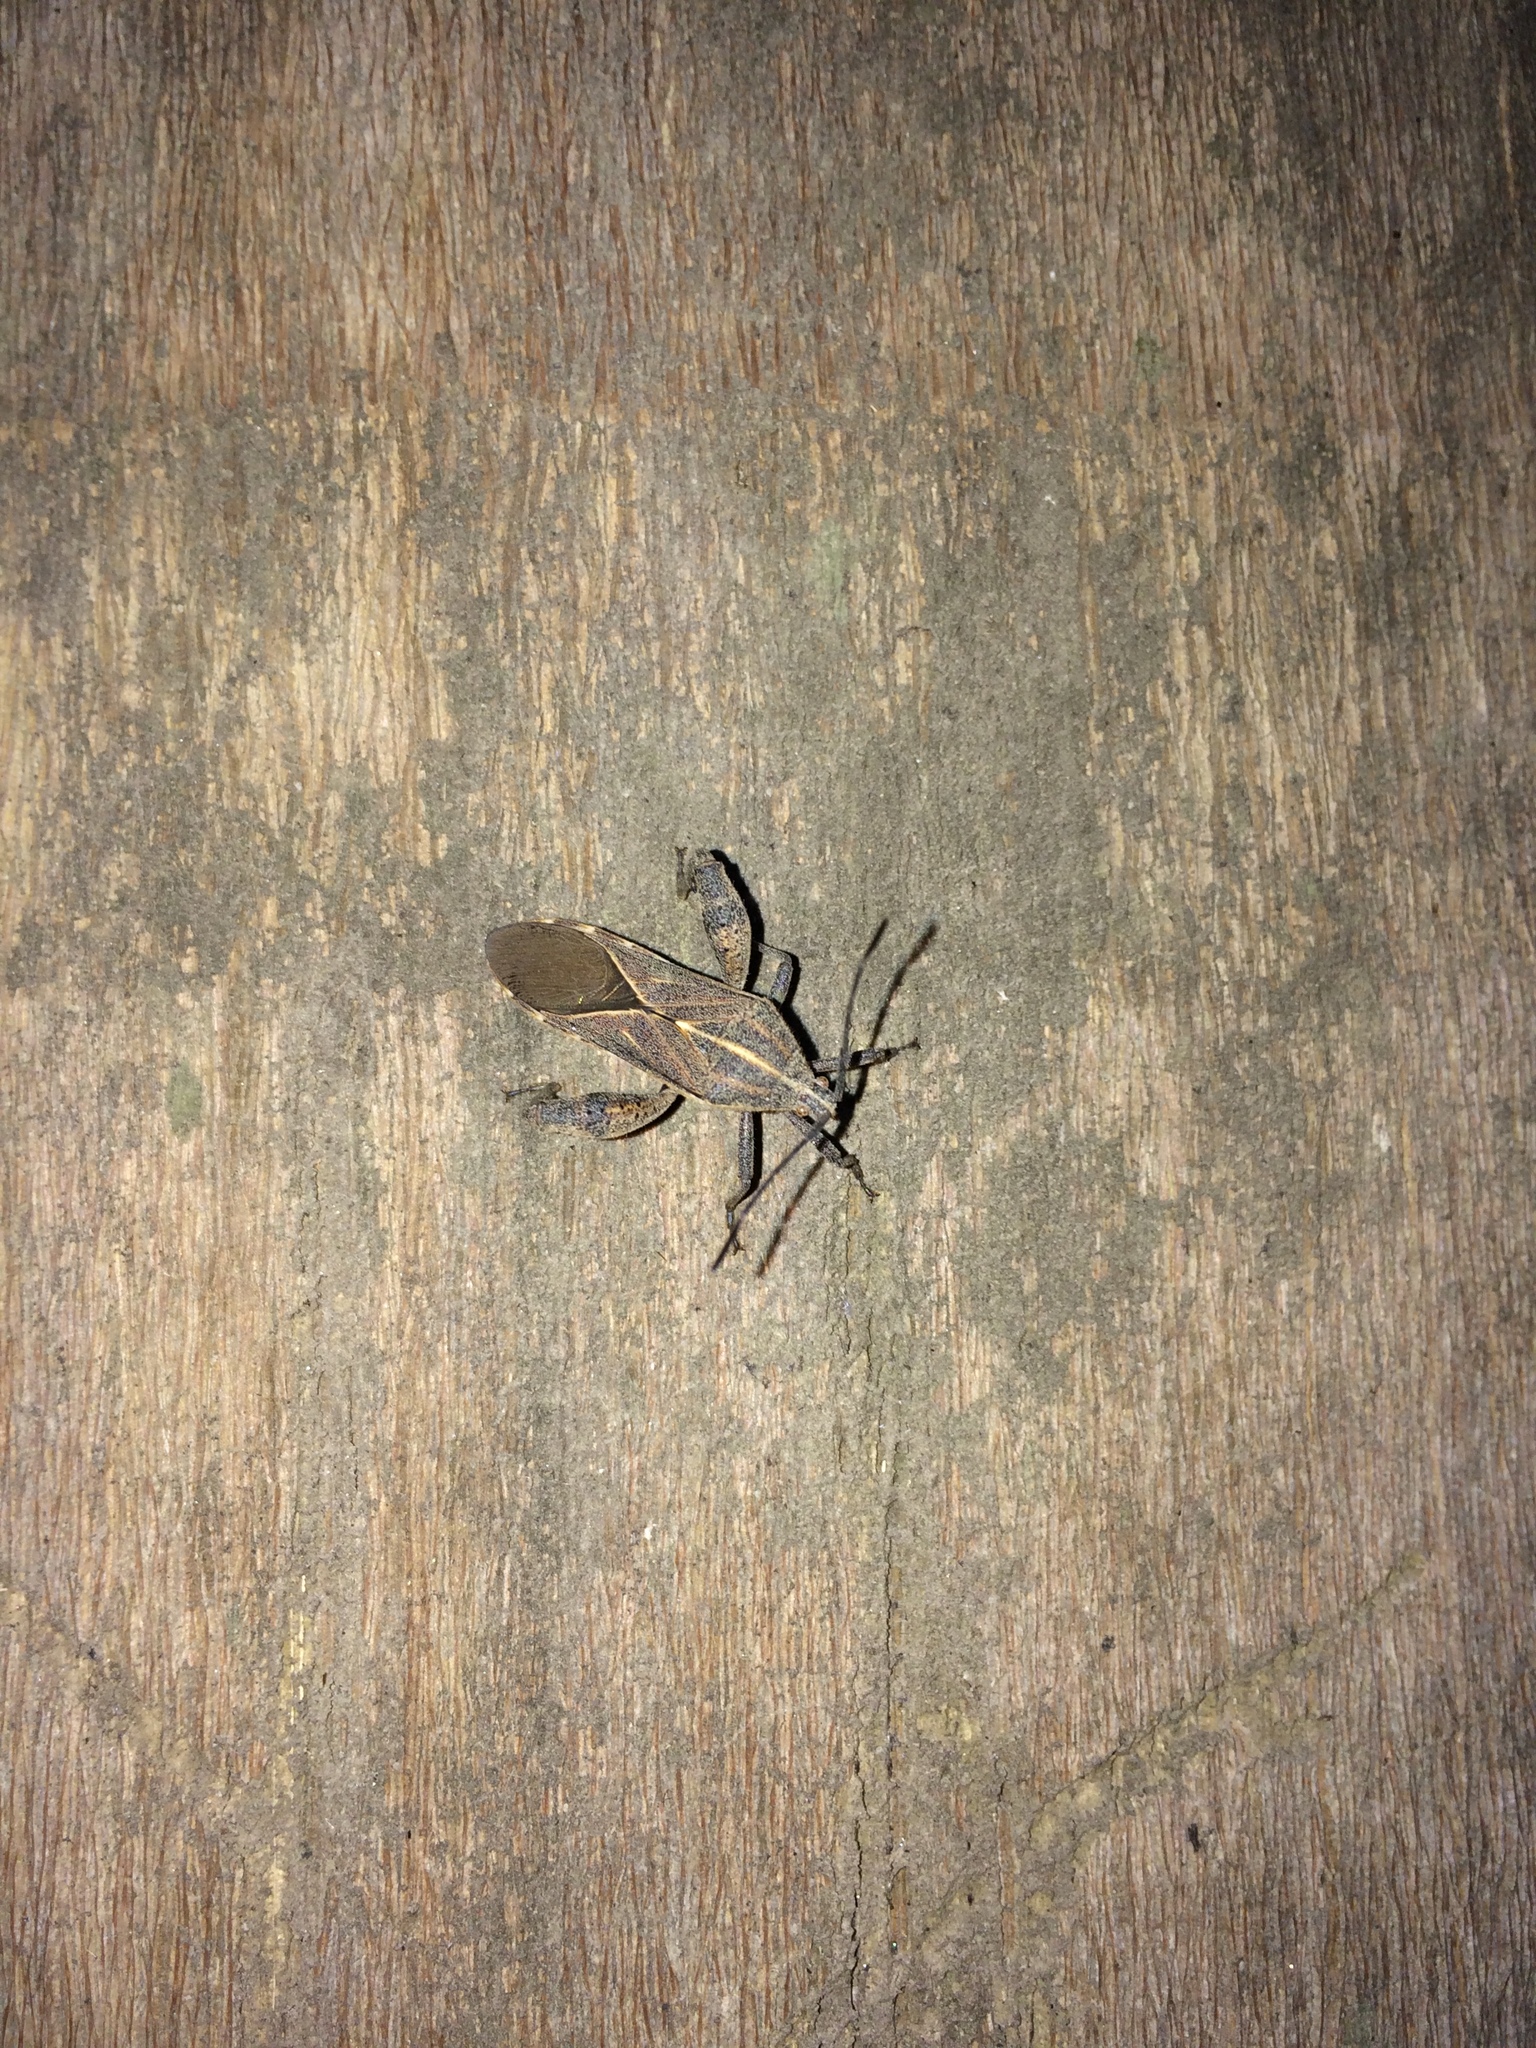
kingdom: Animalia
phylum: Arthropoda
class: Insecta
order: Hemiptera
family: Coreidae
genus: Physomerus
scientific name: Physomerus grossipes
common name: Squash bug
